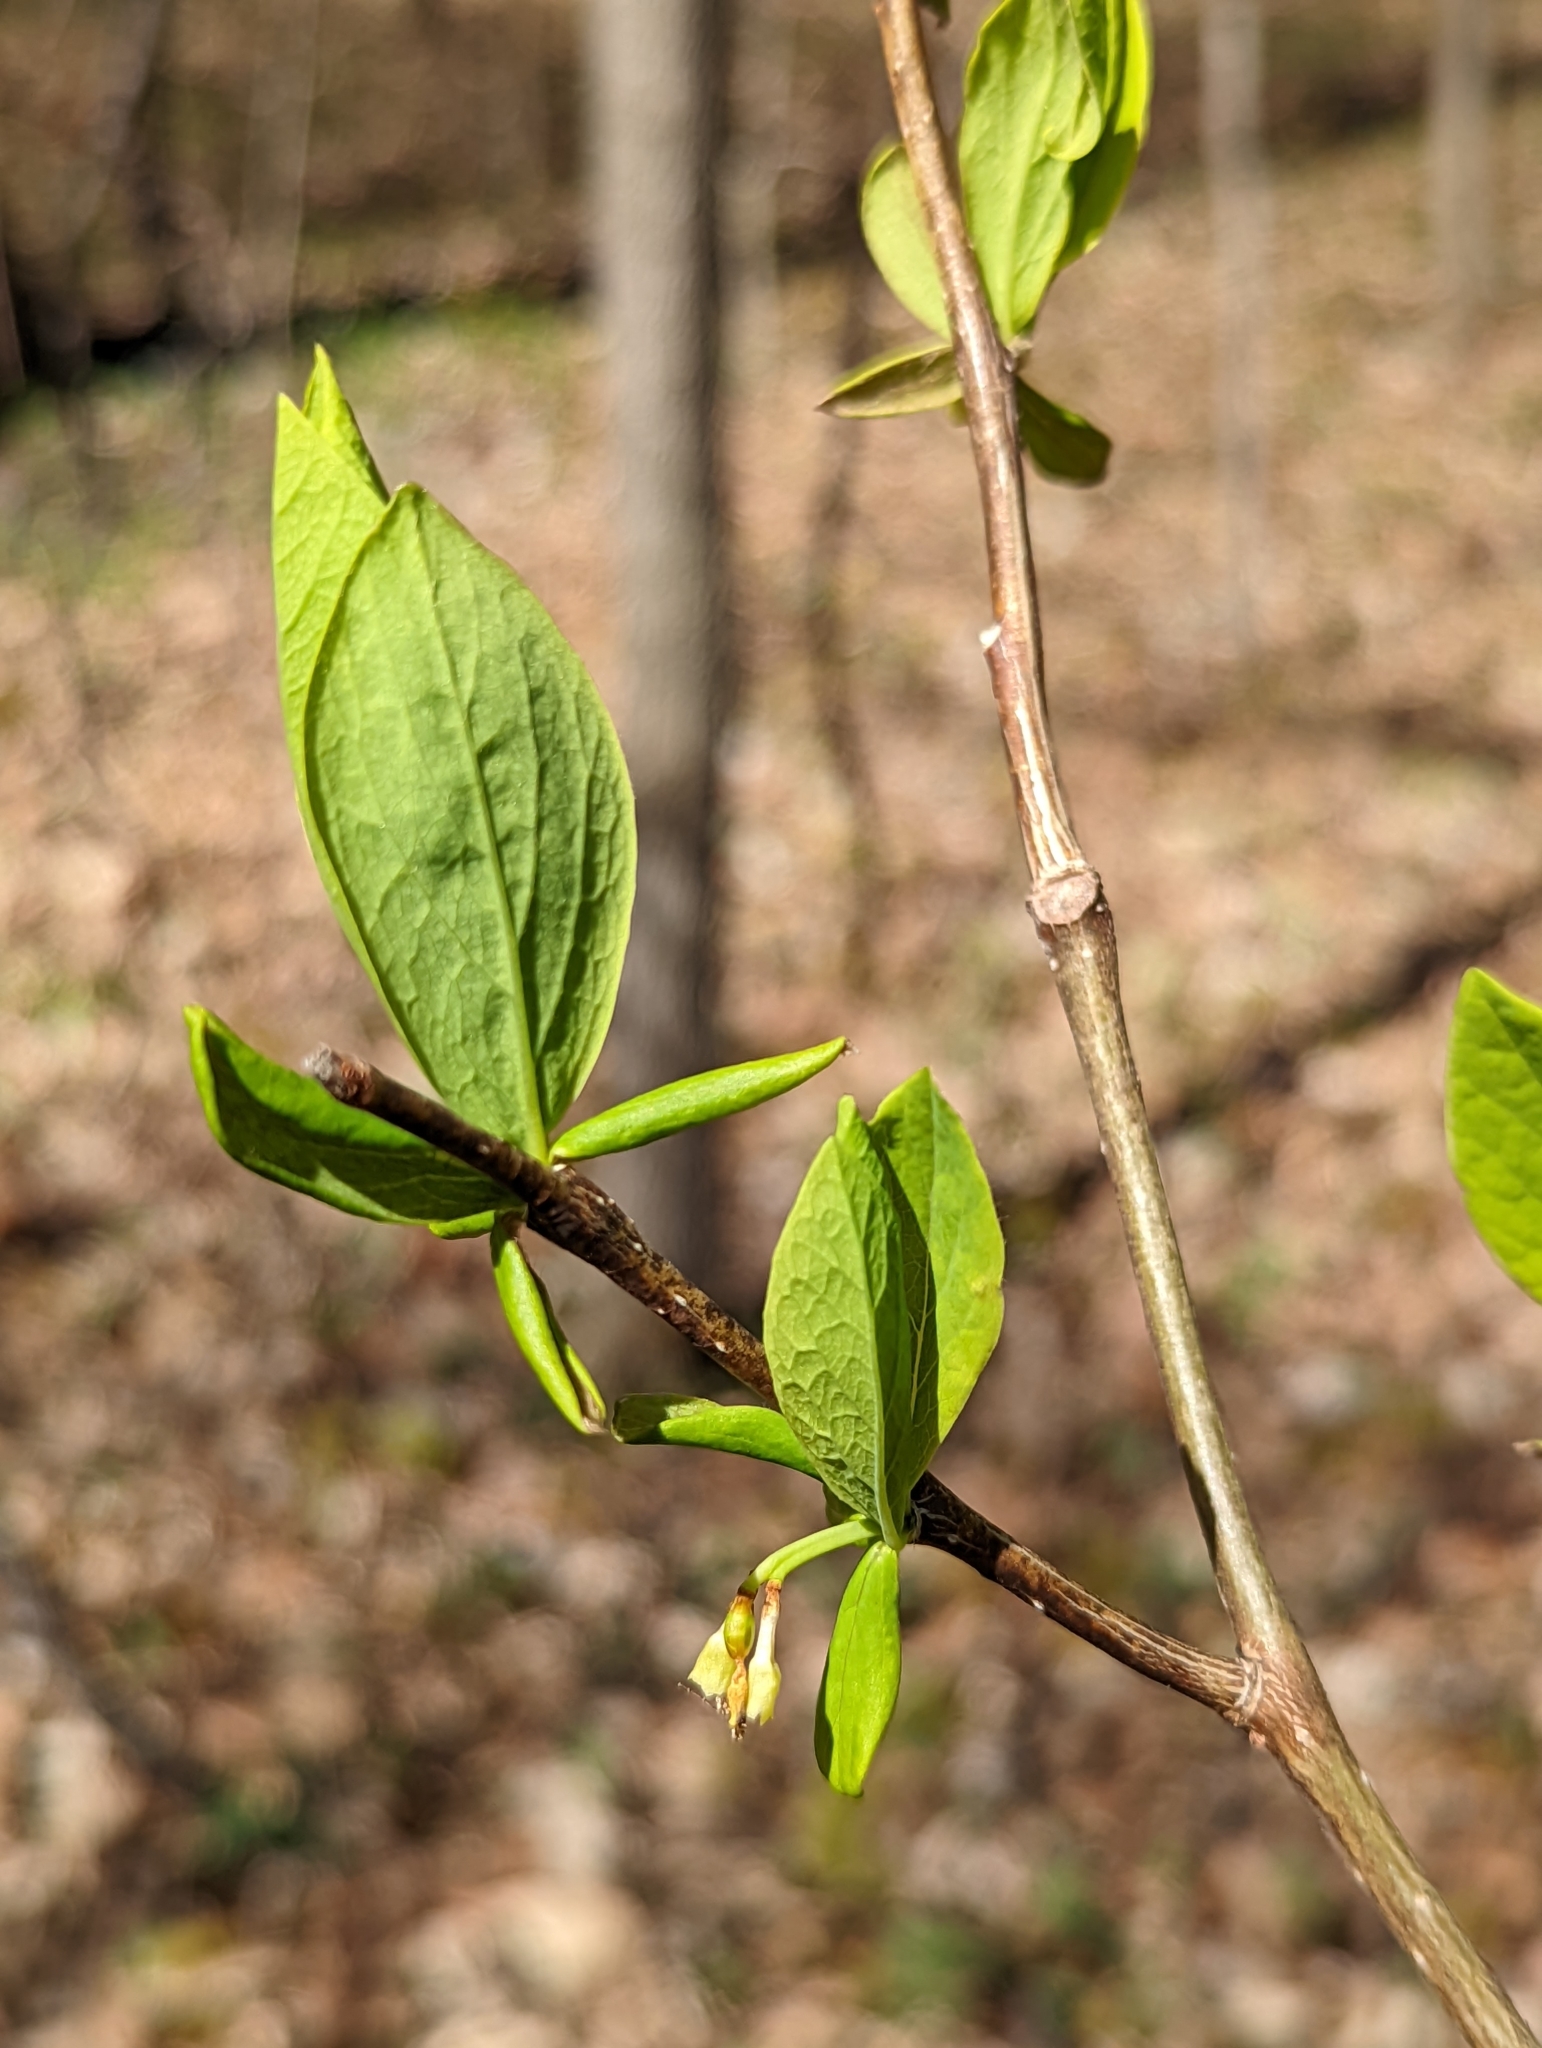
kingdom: Plantae
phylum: Tracheophyta
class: Magnoliopsida
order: Malvales
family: Thymelaeaceae
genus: Dirca
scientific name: Dirca palustris
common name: Leatherwood
